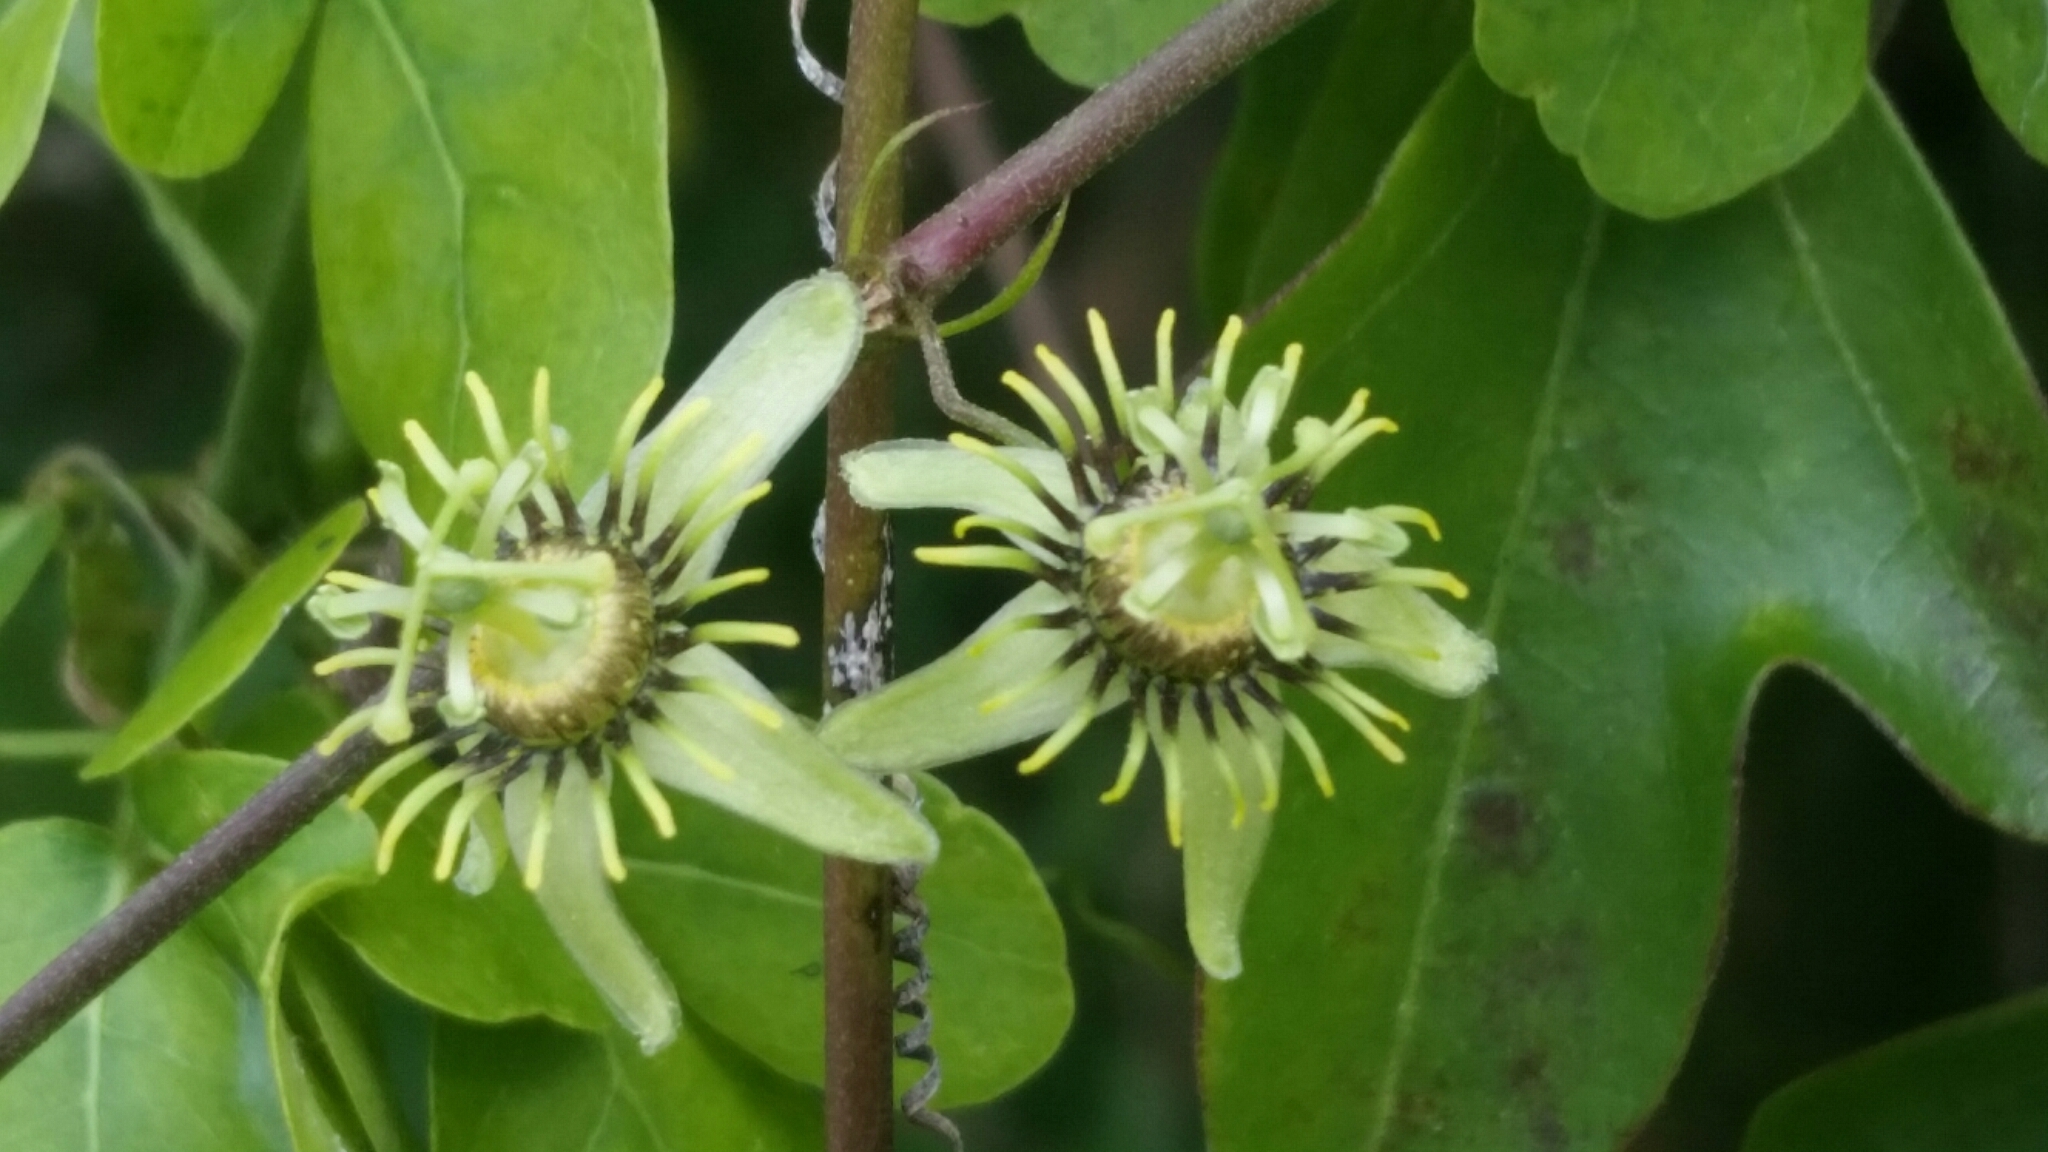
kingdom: Plantae
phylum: Tracheophyta
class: Magnoliopsida
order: Malpighiales
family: Passifloraceae
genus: Passiflora
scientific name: Passiflora pallida
